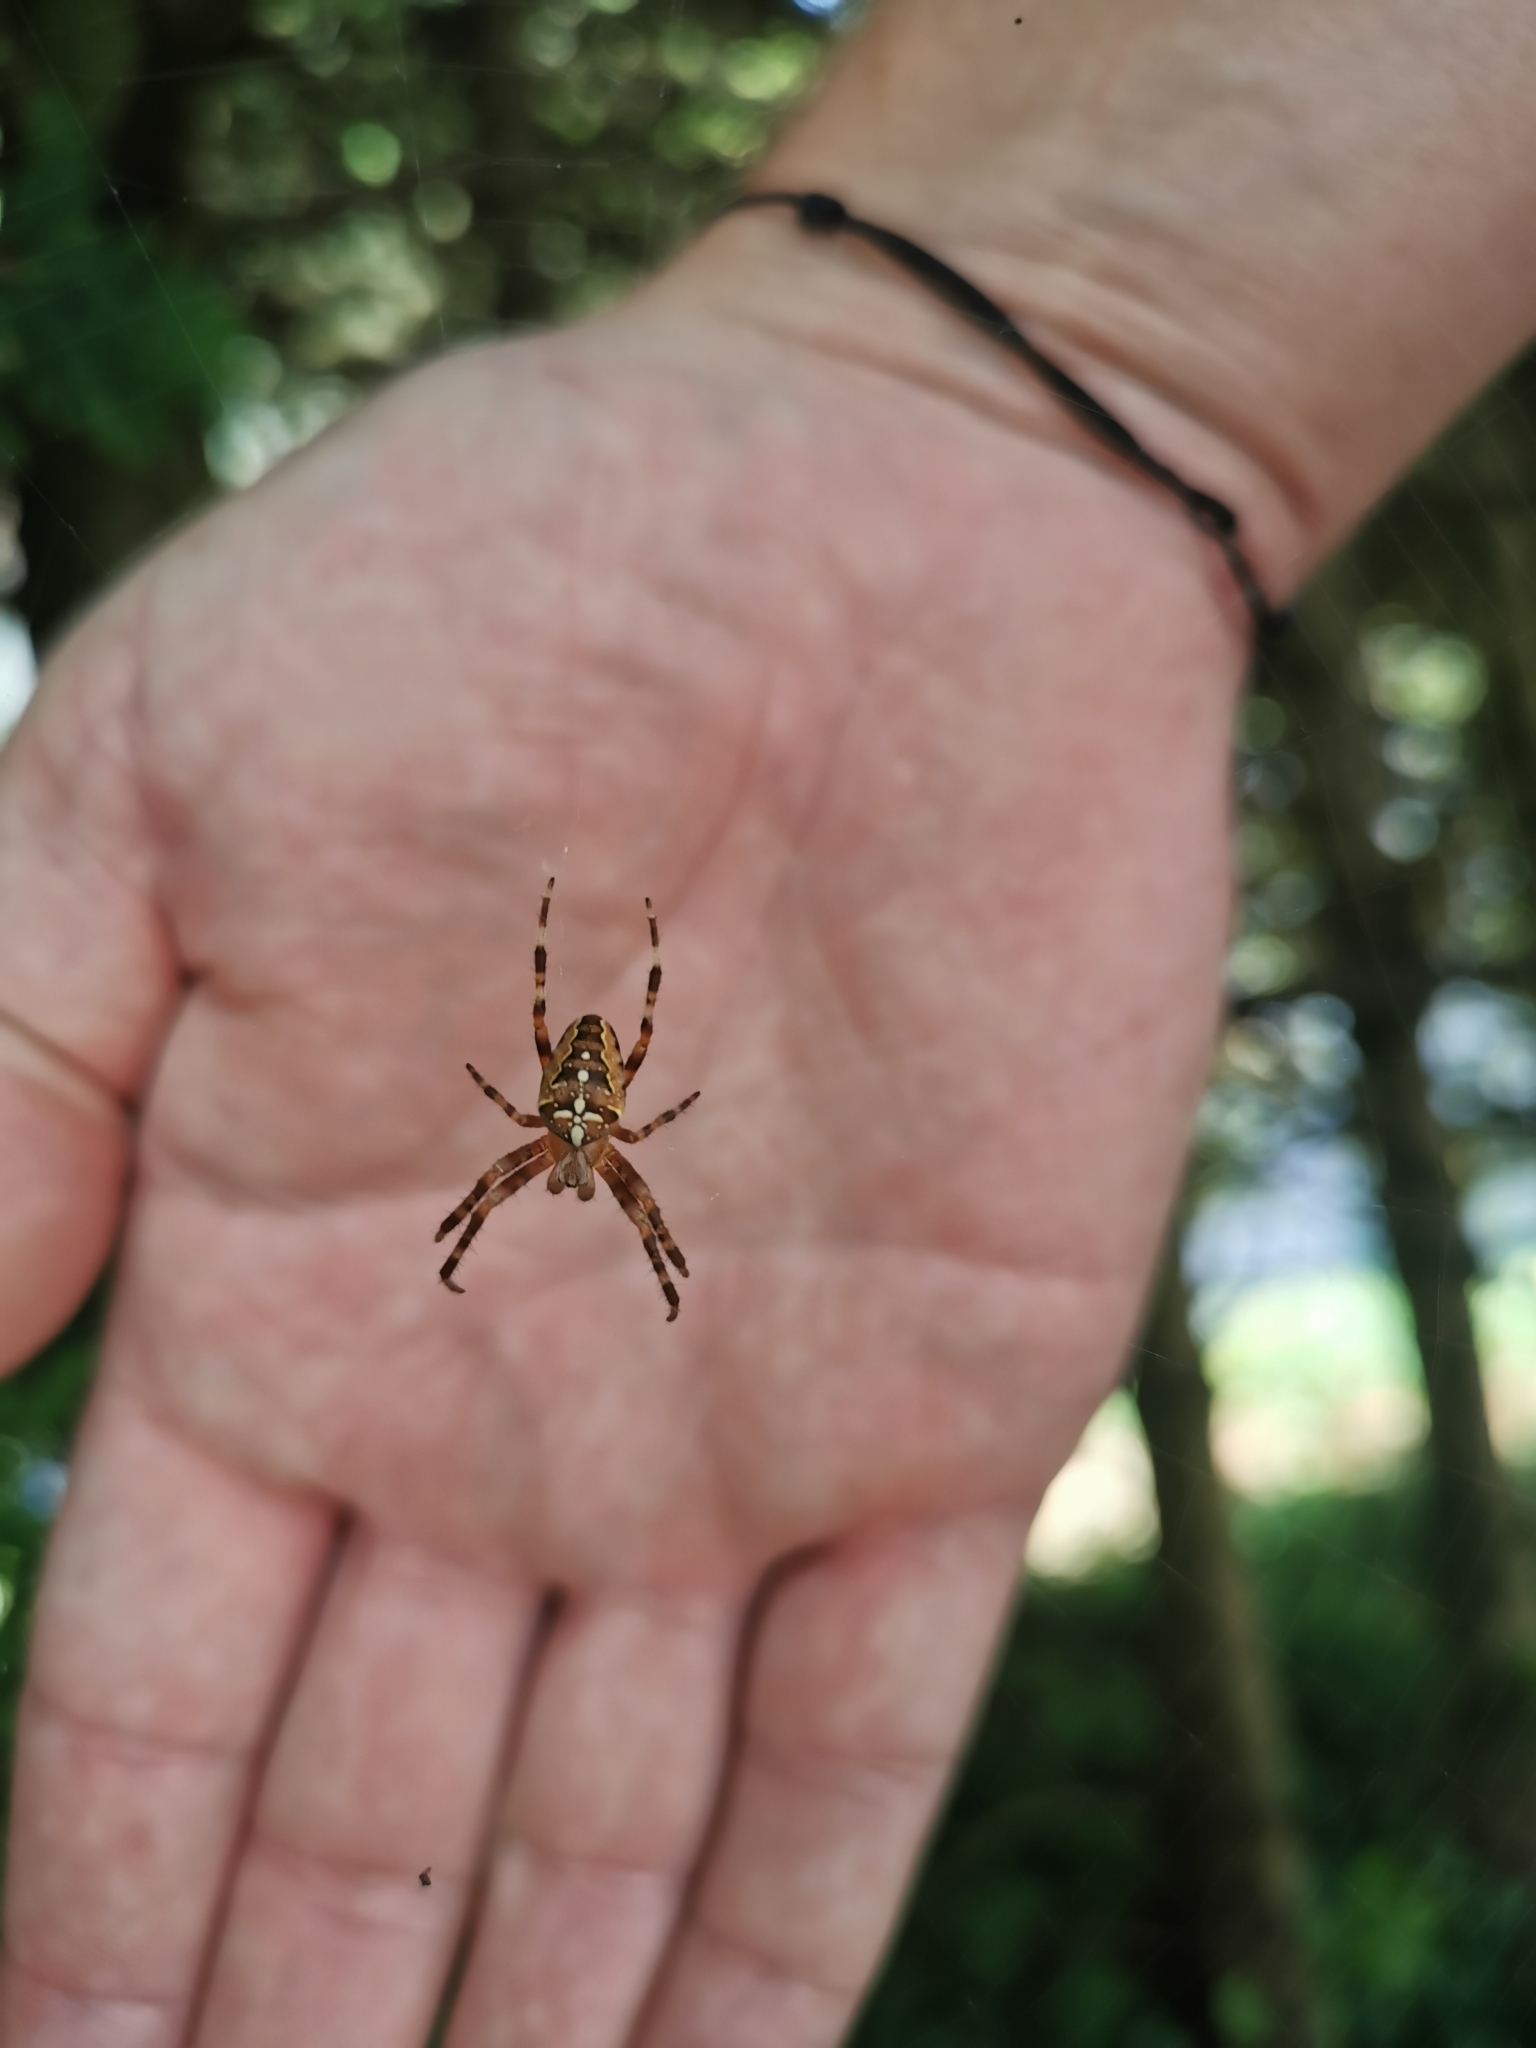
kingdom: Animalia
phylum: Arthropoda
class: Arachnida
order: Araneae
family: Araneidae
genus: Araneus
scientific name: Araneus diadematus
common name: Cross orbweaver
